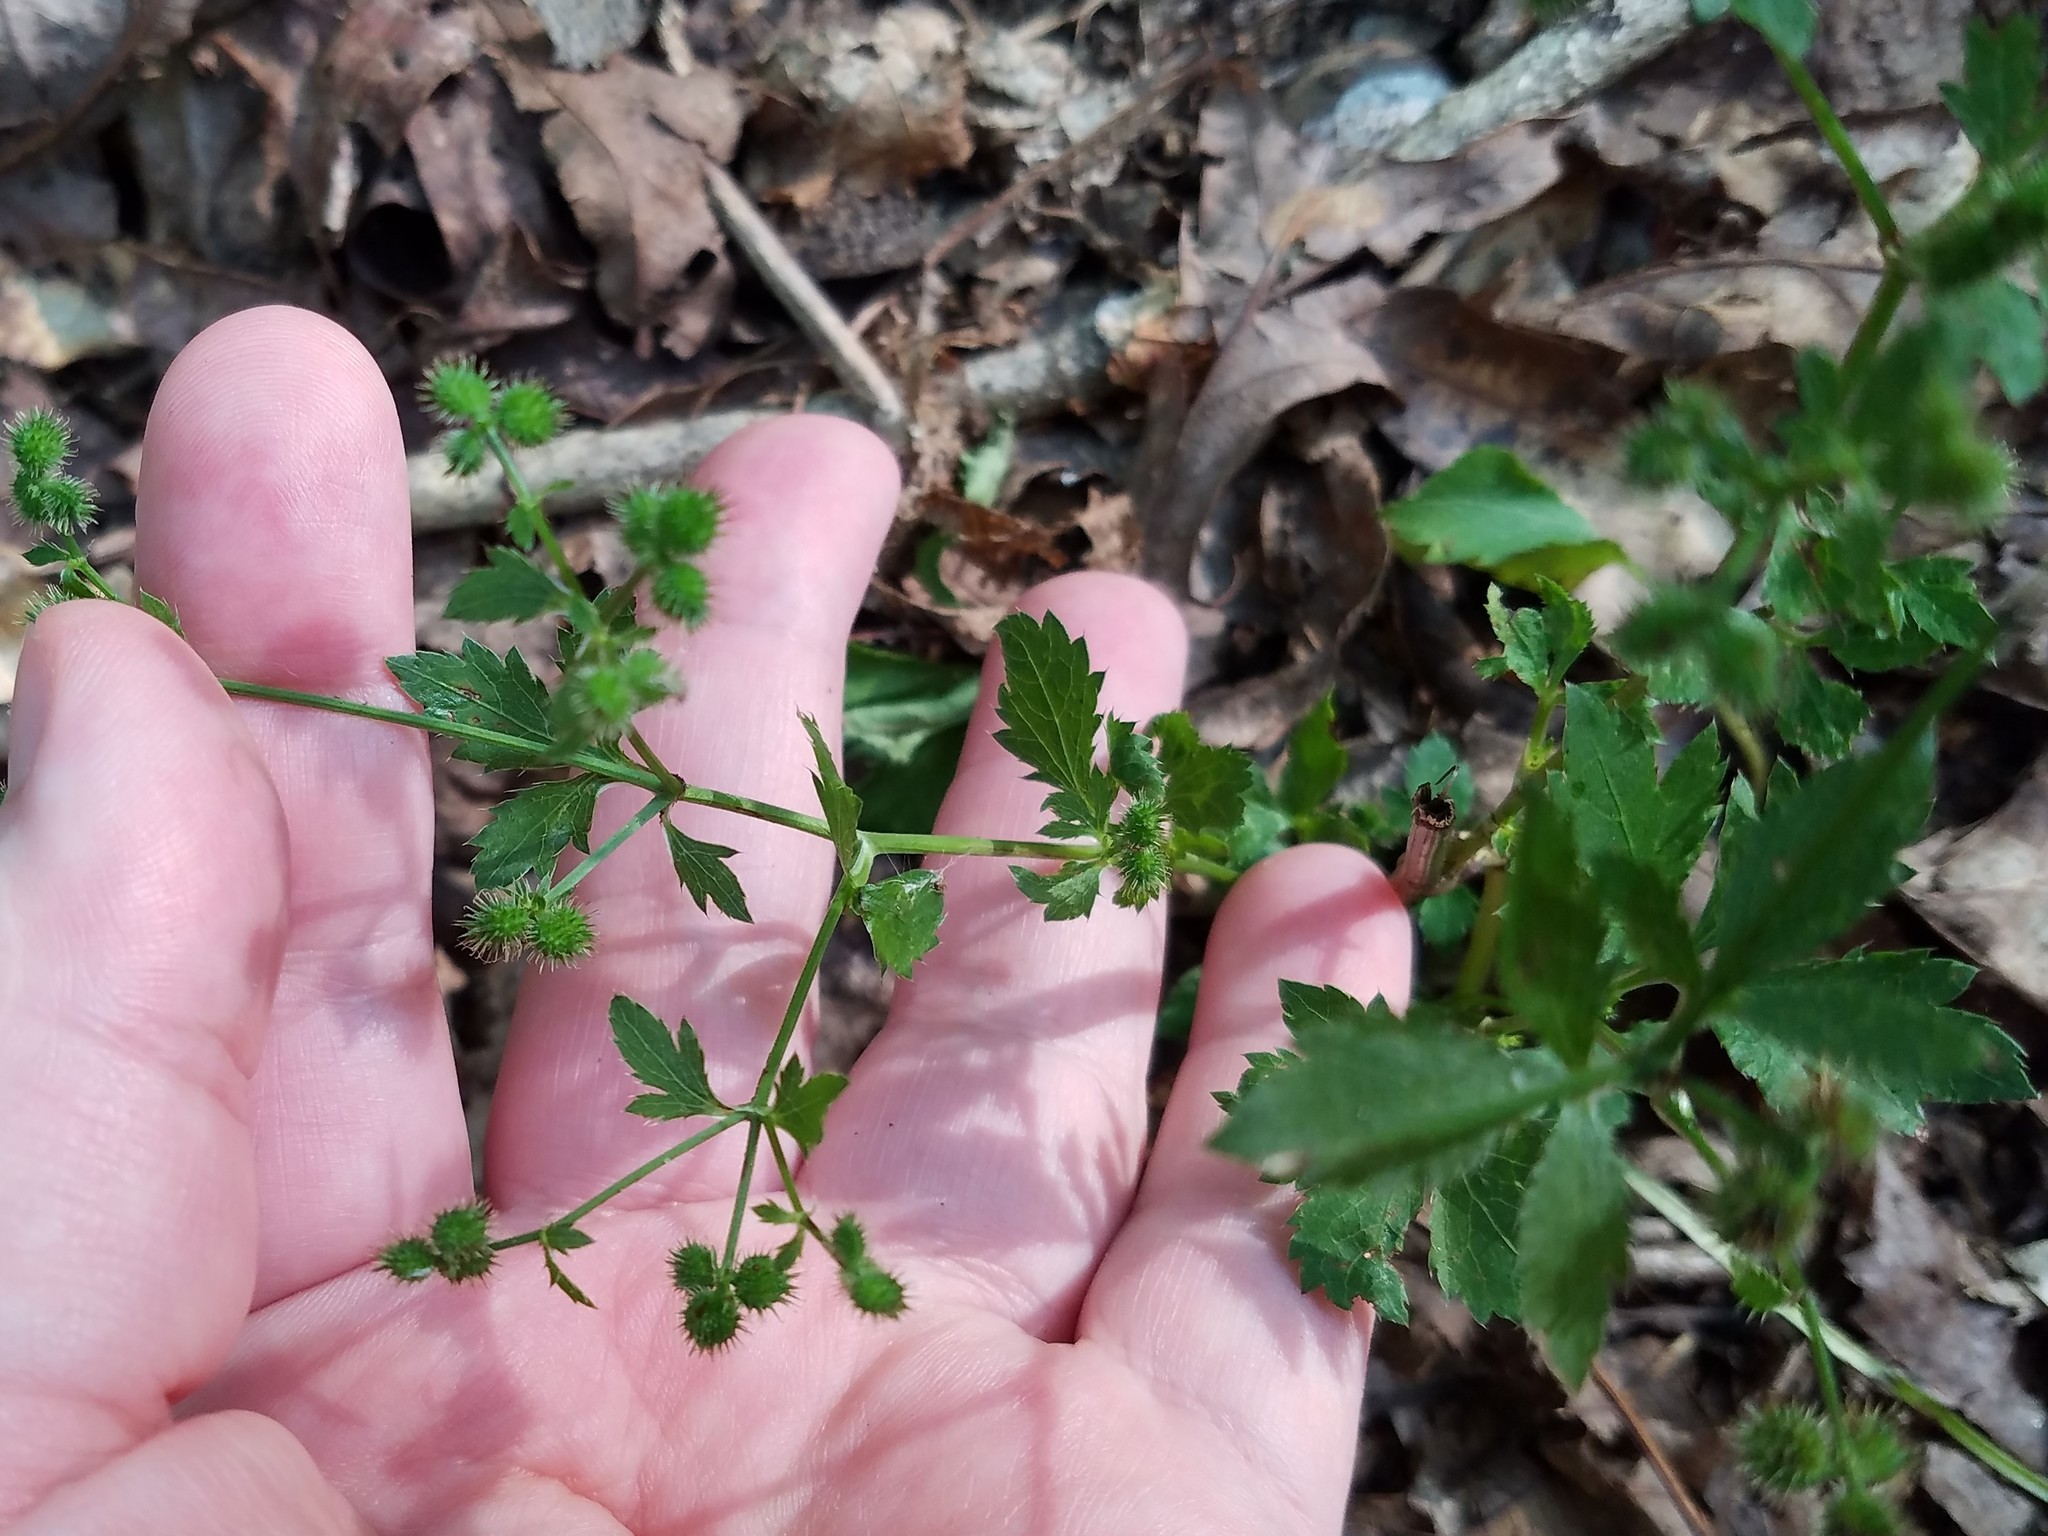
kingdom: Plantae
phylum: Tracheophyta
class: Magnoliopsida
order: Apiales
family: Apiaceae
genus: Sanicula
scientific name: Sanicula canadensis
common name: Canada sanicle
